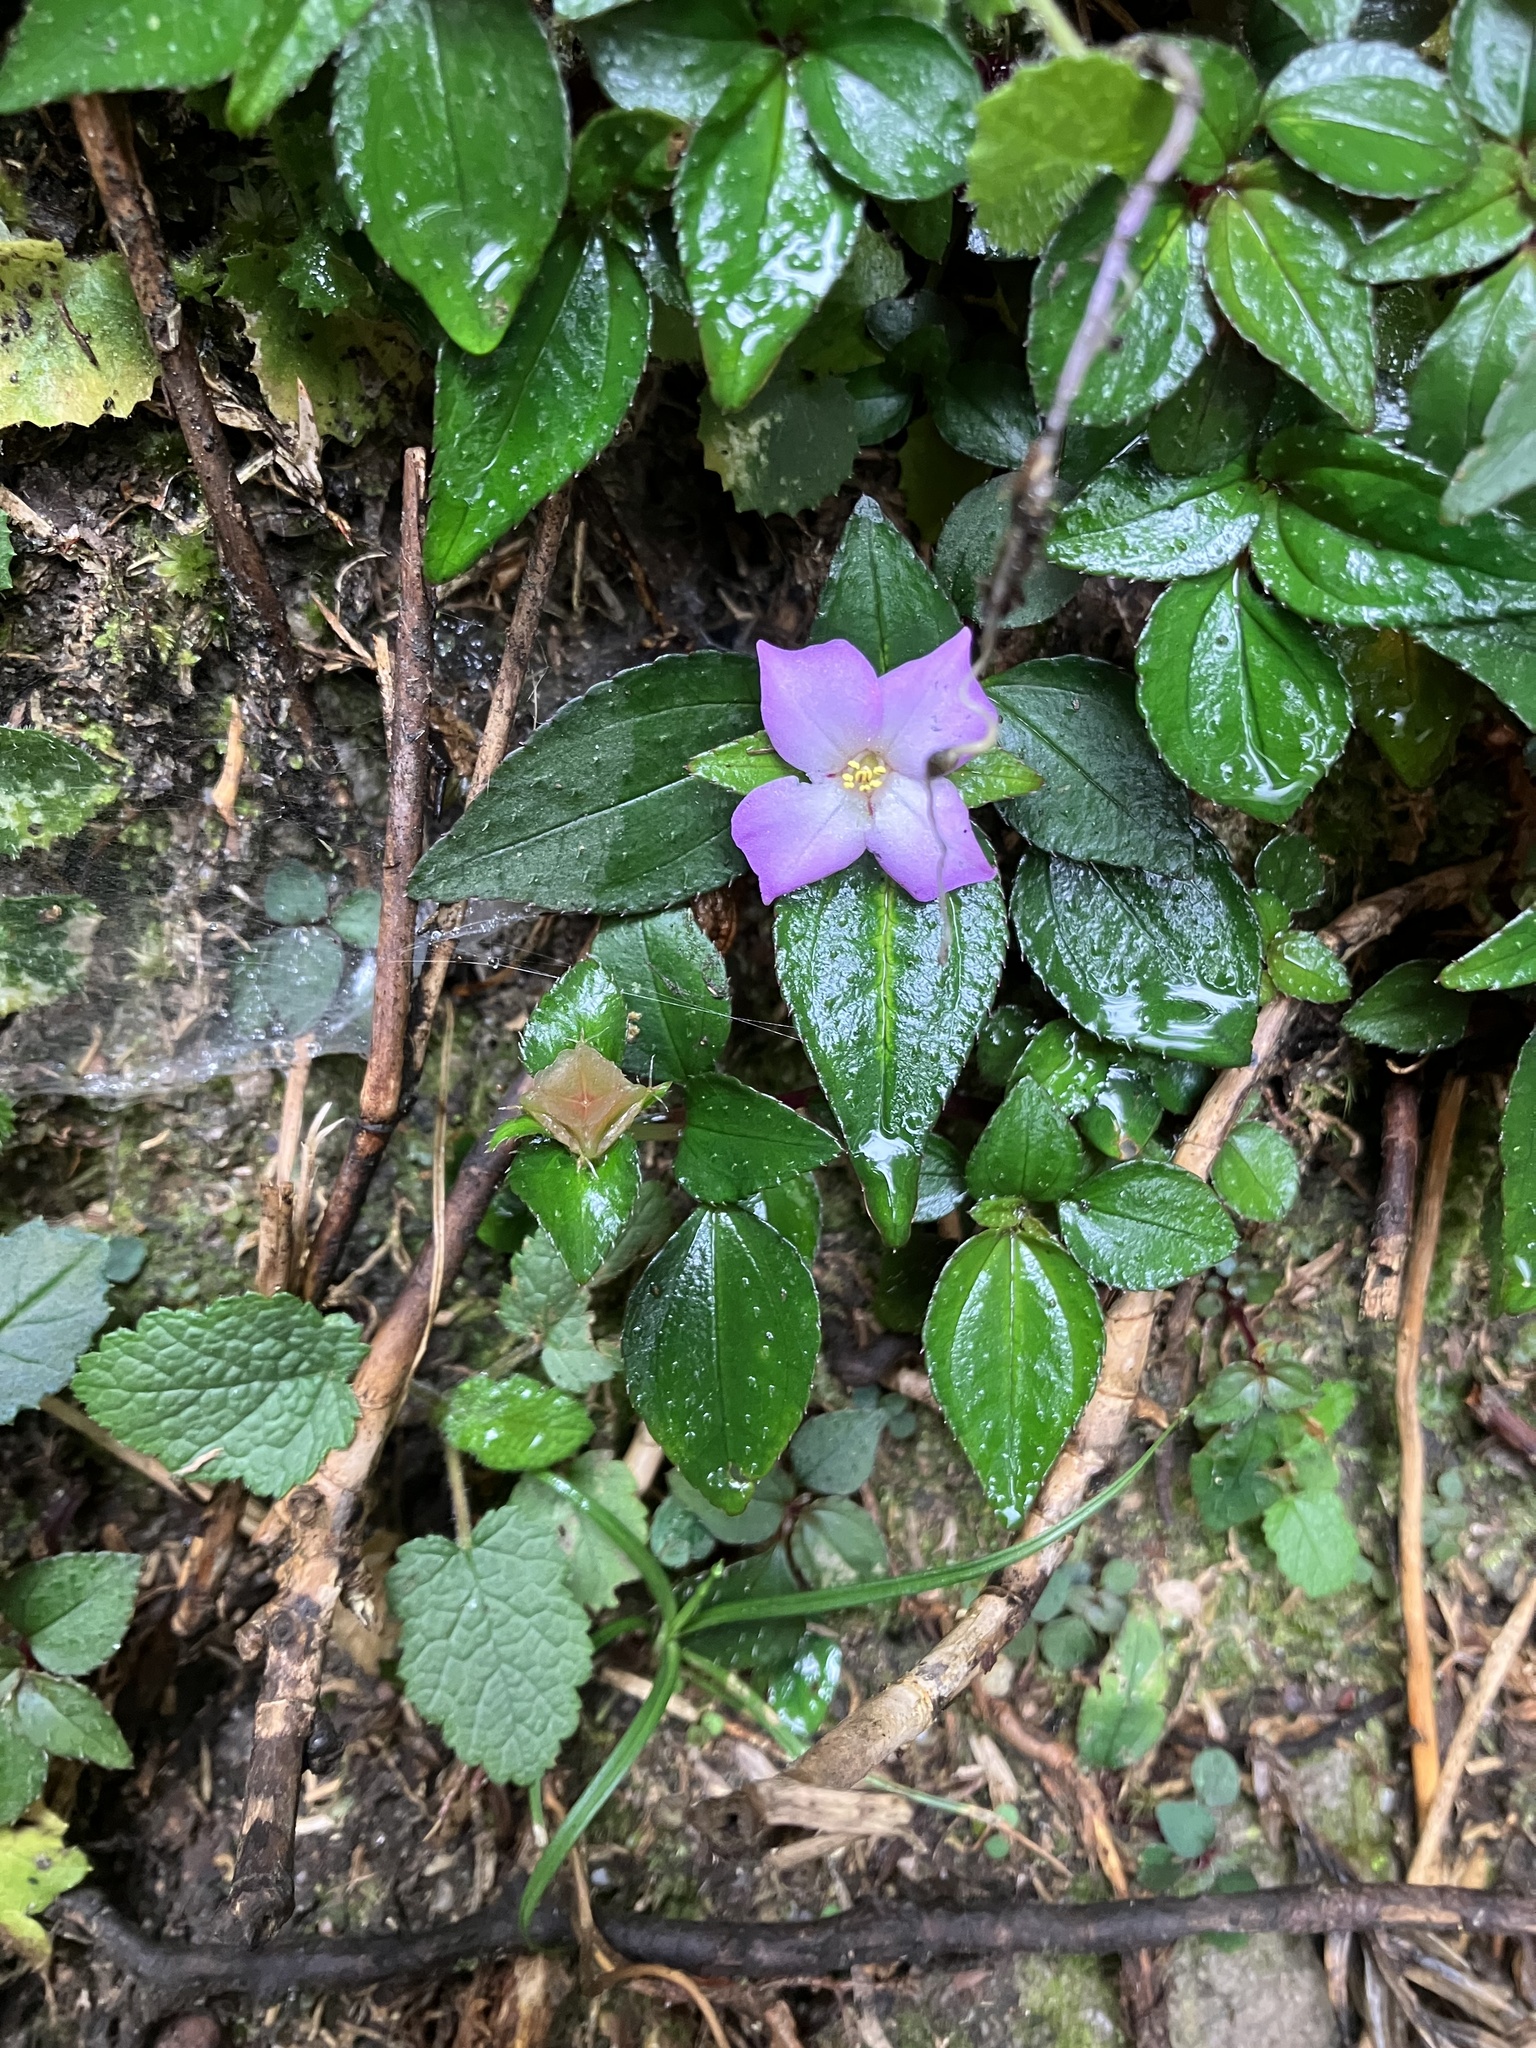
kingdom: Plantae
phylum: Tracheophyta
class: Magnoliopsida
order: Myrtales
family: Melastomataceae
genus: Sarcopyramis
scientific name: Sarcopyramis bodinieri
